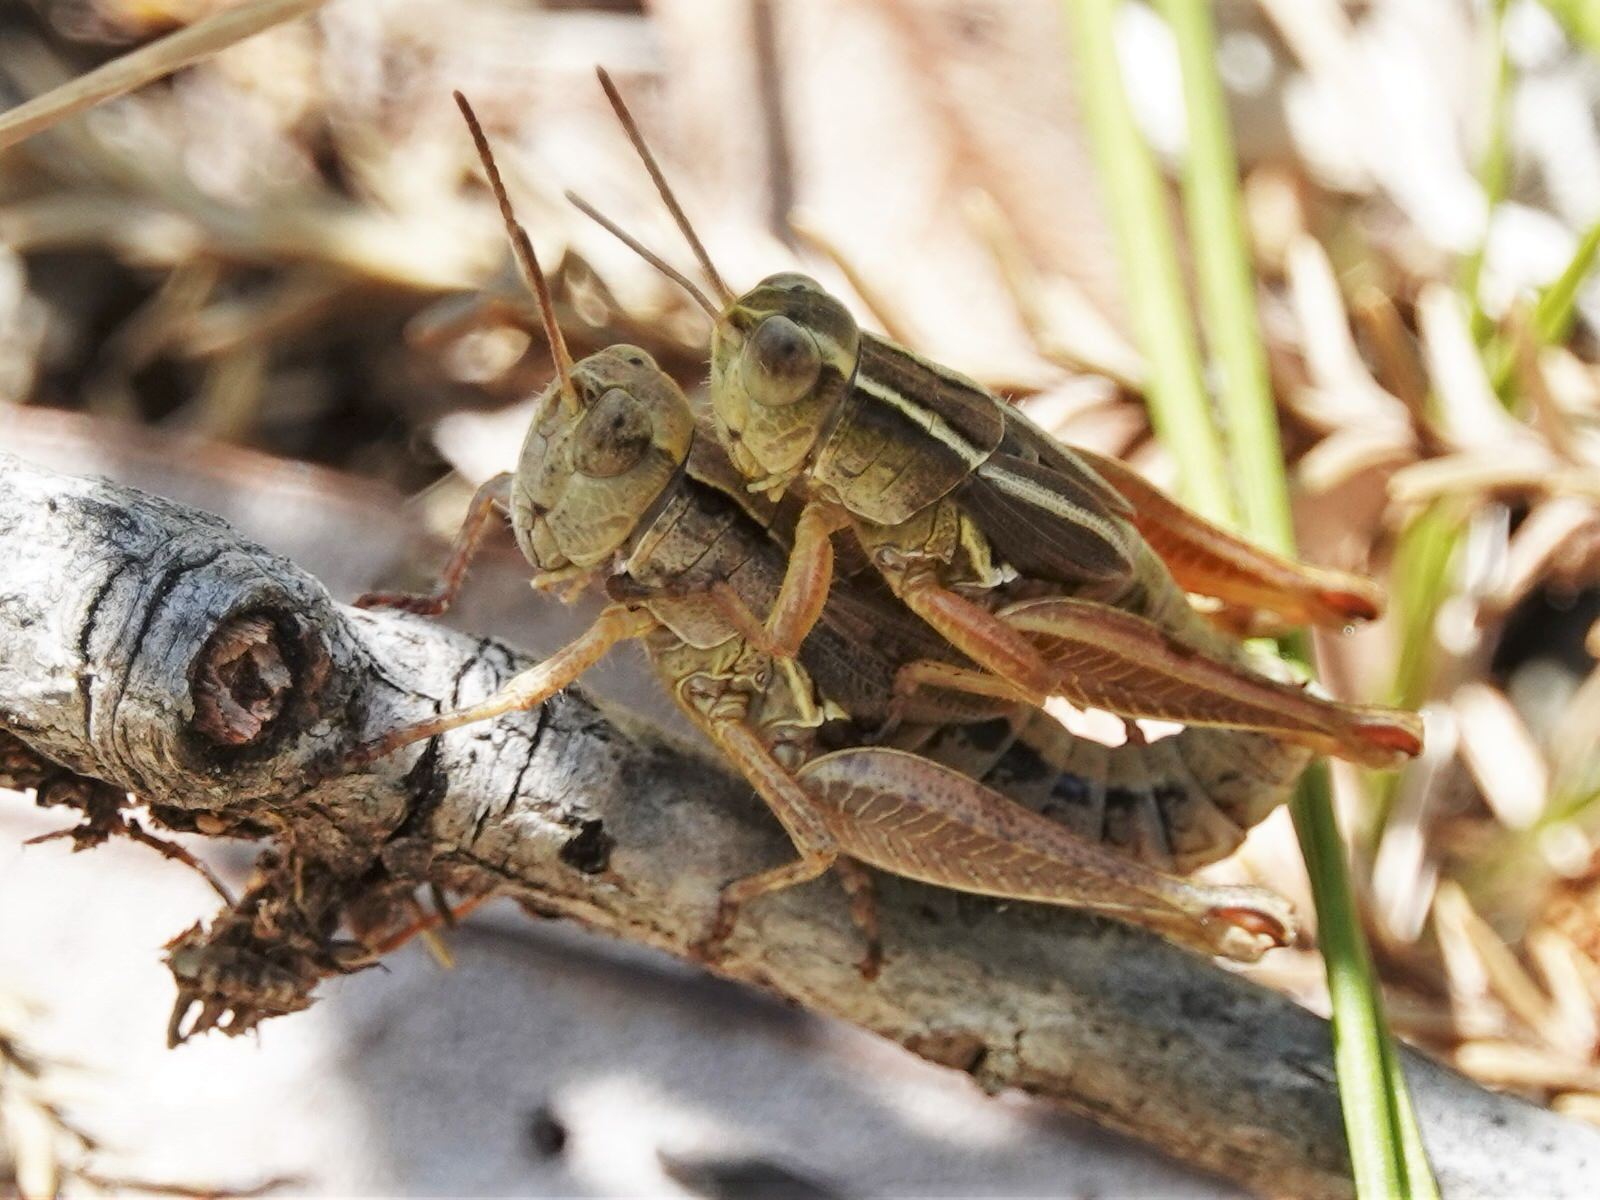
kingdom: Animalia
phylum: Arthropoda
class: Insecta
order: Orthoptera
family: Acrididae
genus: Phaulacridium
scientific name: Phaulacridium marginale
